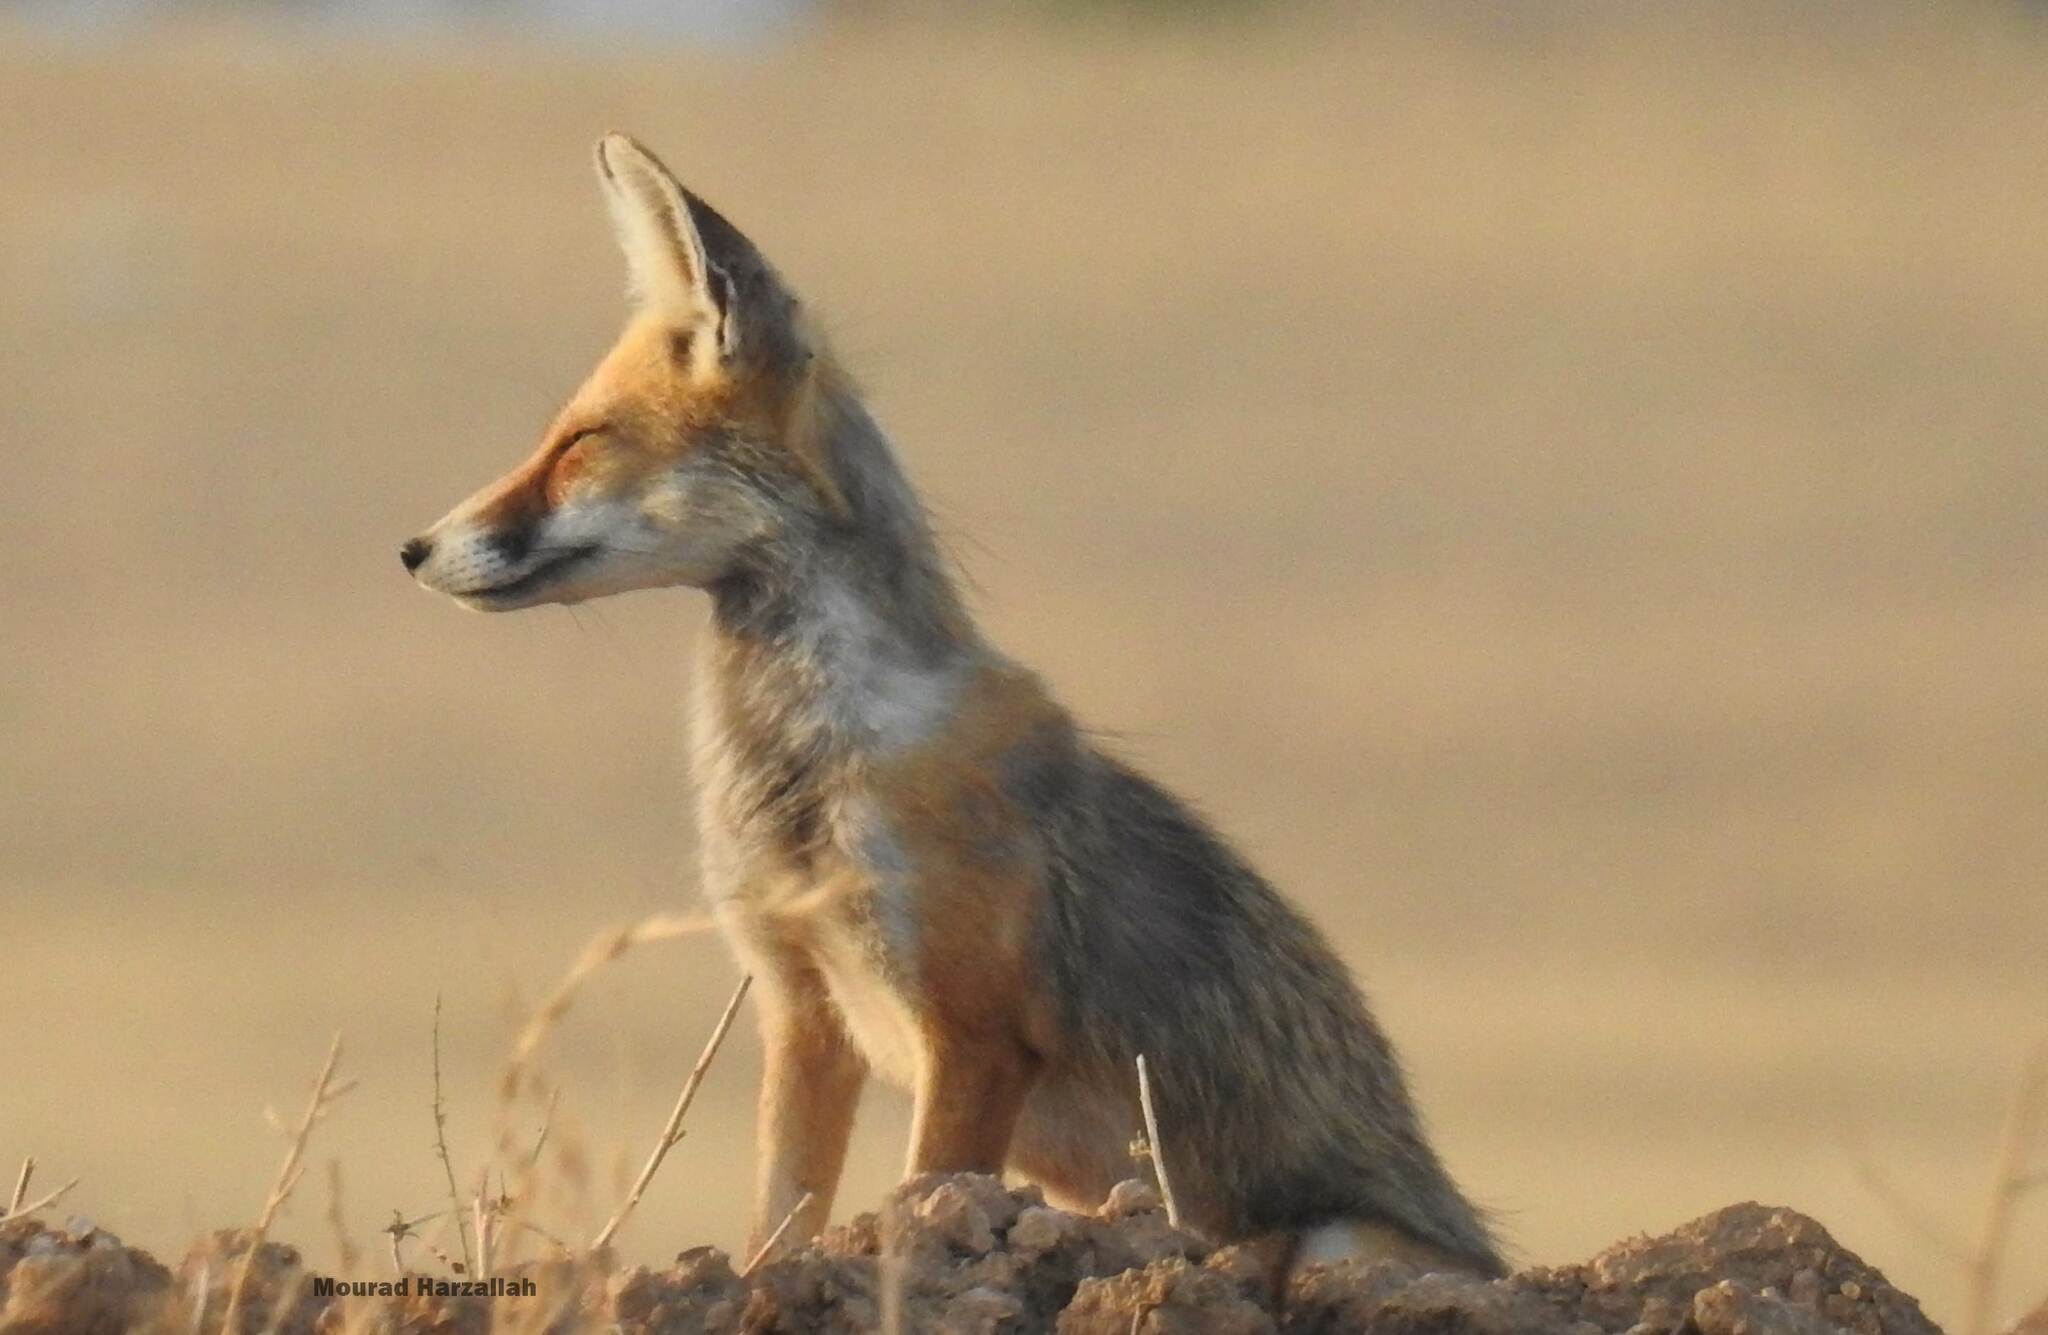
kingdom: Animalia
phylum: Chordata
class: Mammalia
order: Carnivora
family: Canidae
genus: Vulpes
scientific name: Vulpes vulpes
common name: Red fox
